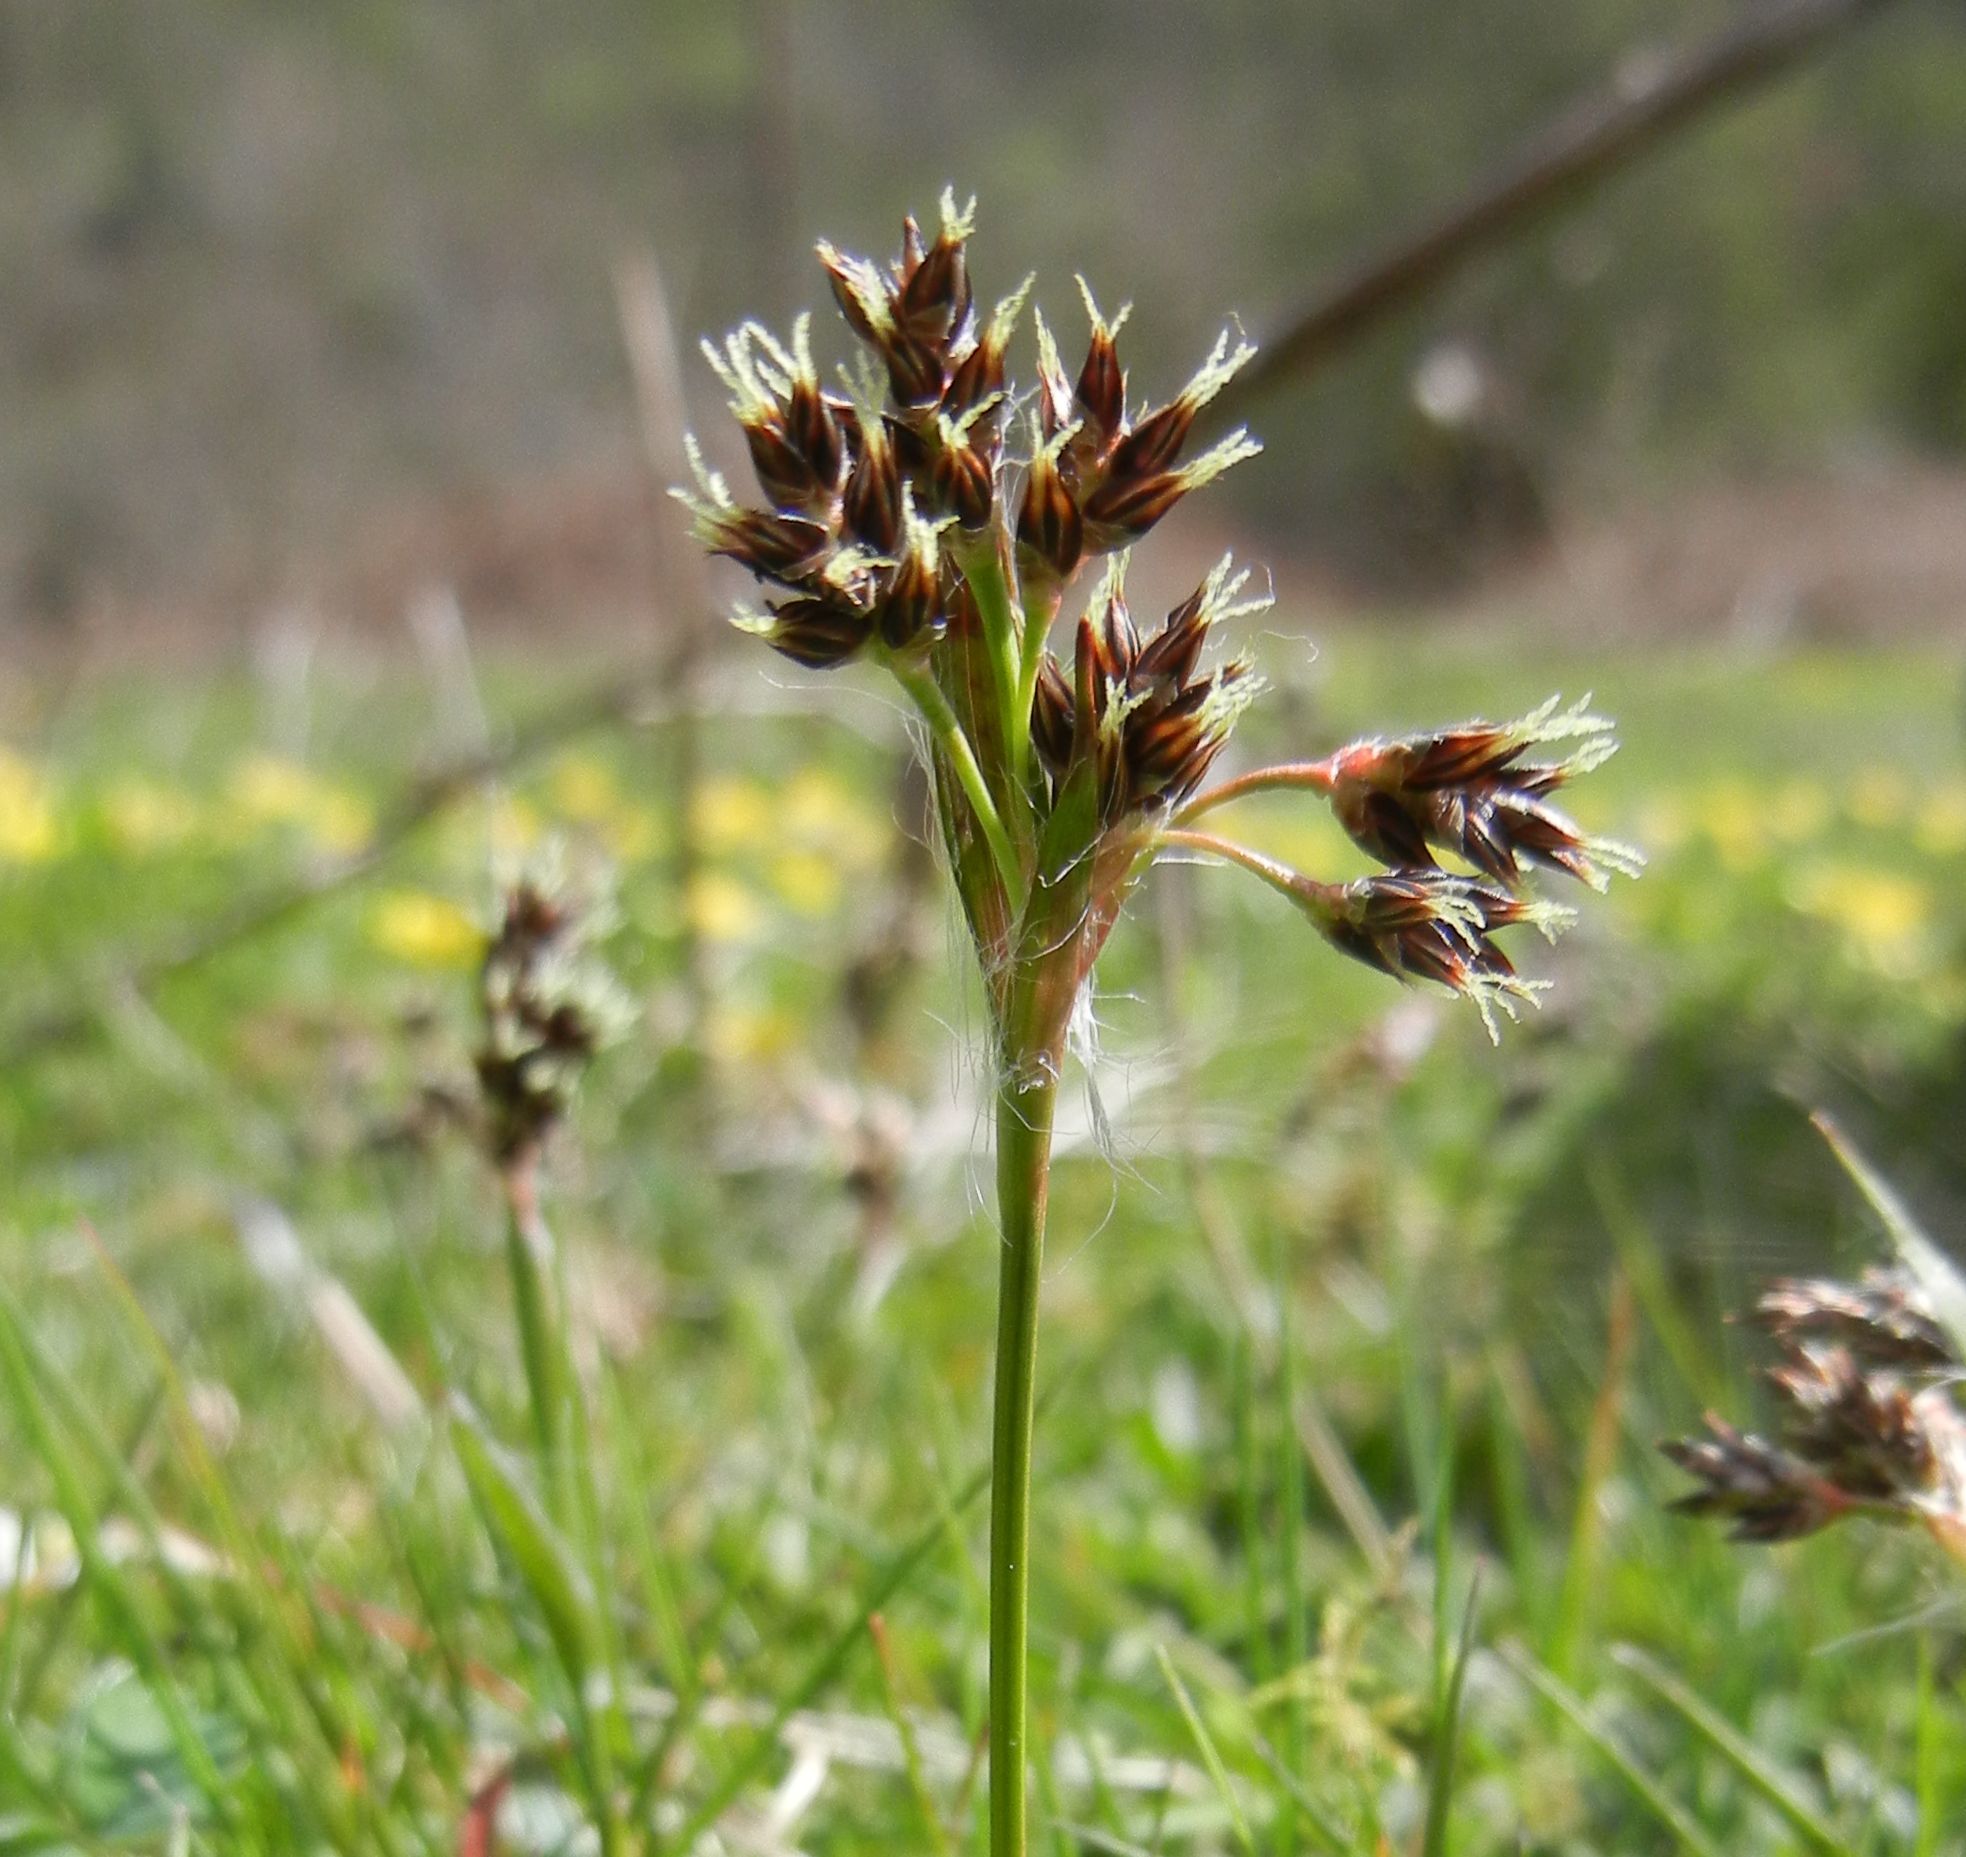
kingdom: Plantae
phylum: Tracheophyta
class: Liliopsida
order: Poales
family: Juncaceae
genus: Luzula
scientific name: Luzula campestris
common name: Field wood-rush
